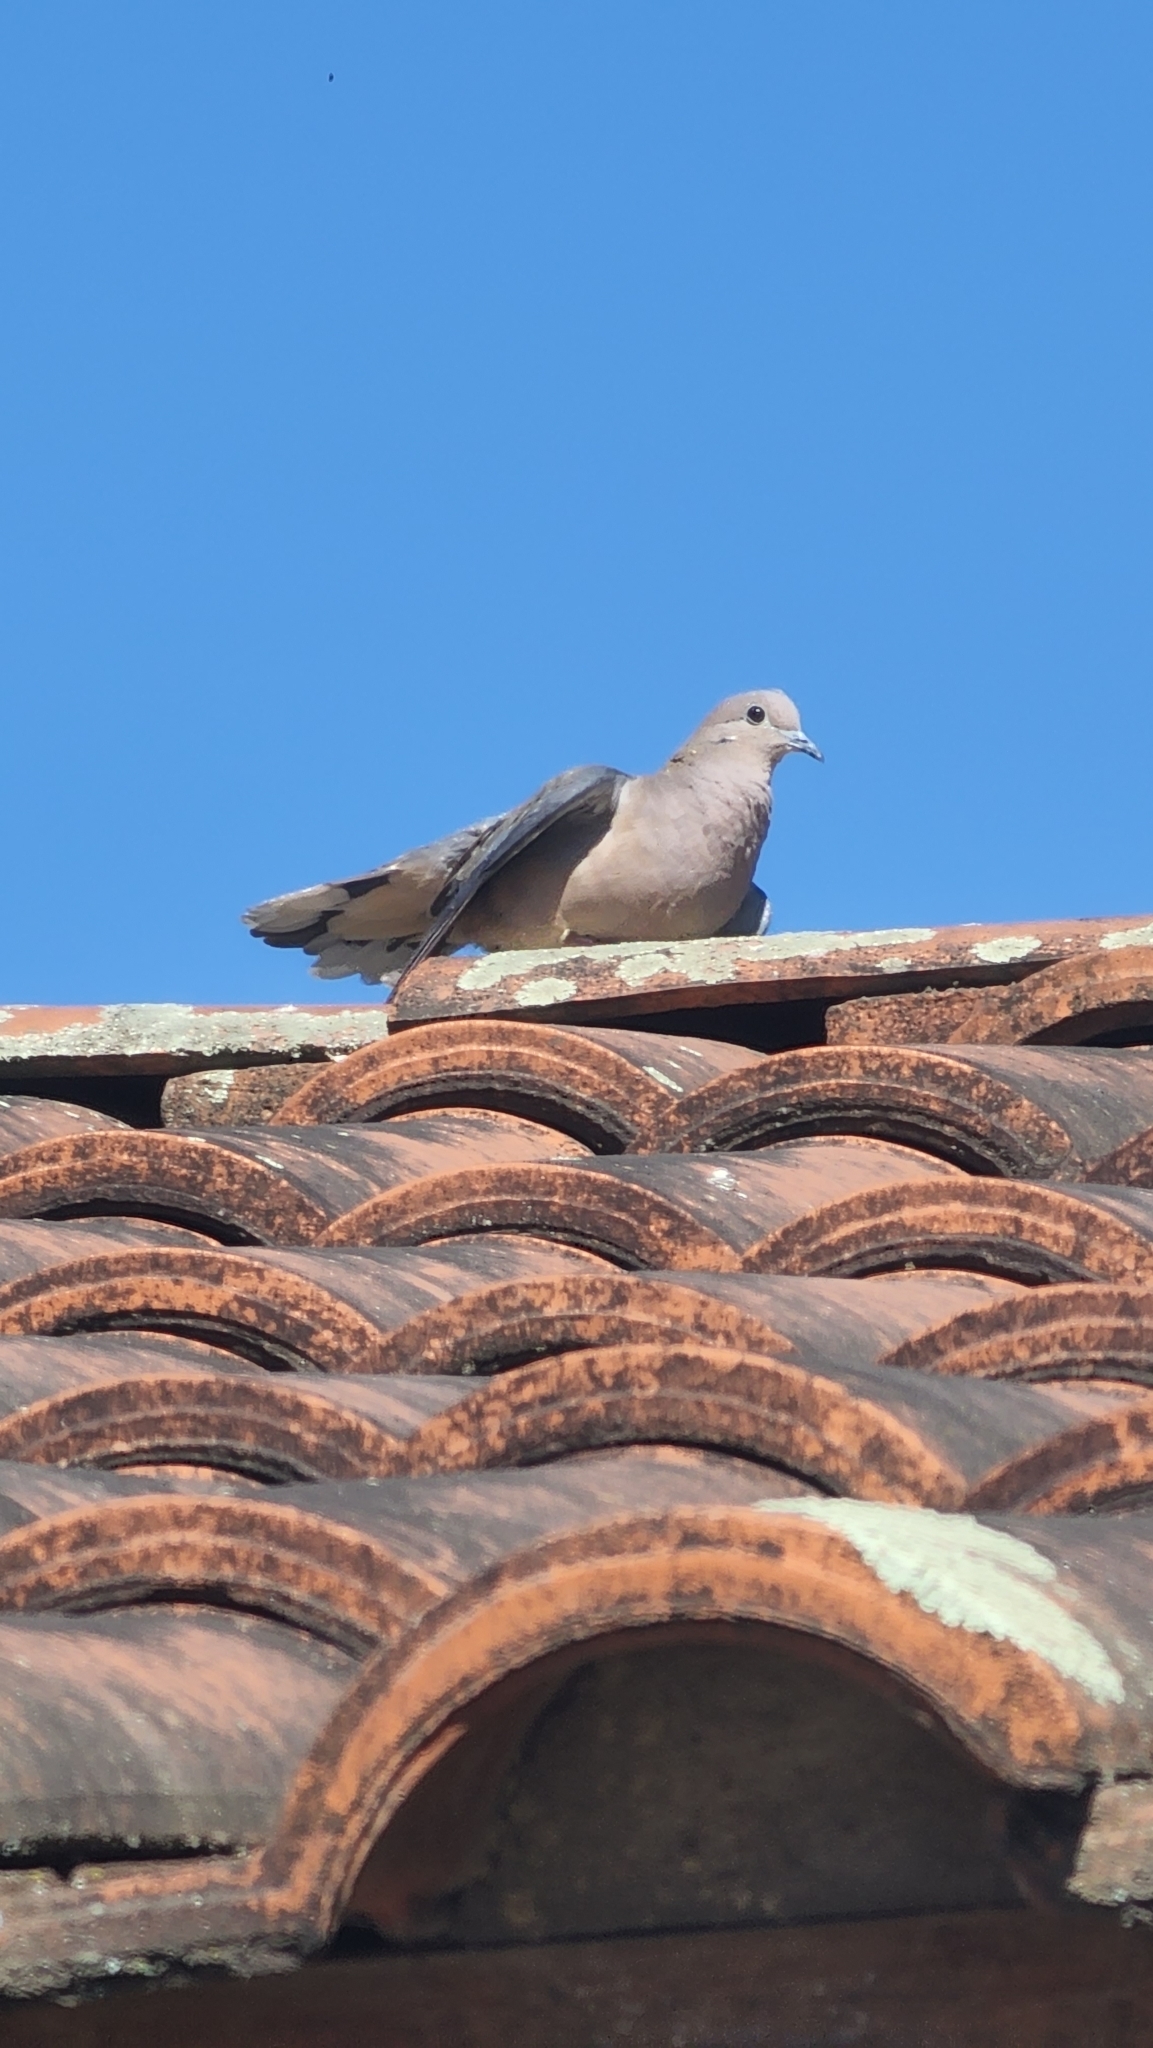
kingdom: Animalia
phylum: Chordata
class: Aves
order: Columbiformes
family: Columbidae
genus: Zenaida
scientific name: Zenaida auriculata
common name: Eared dove
